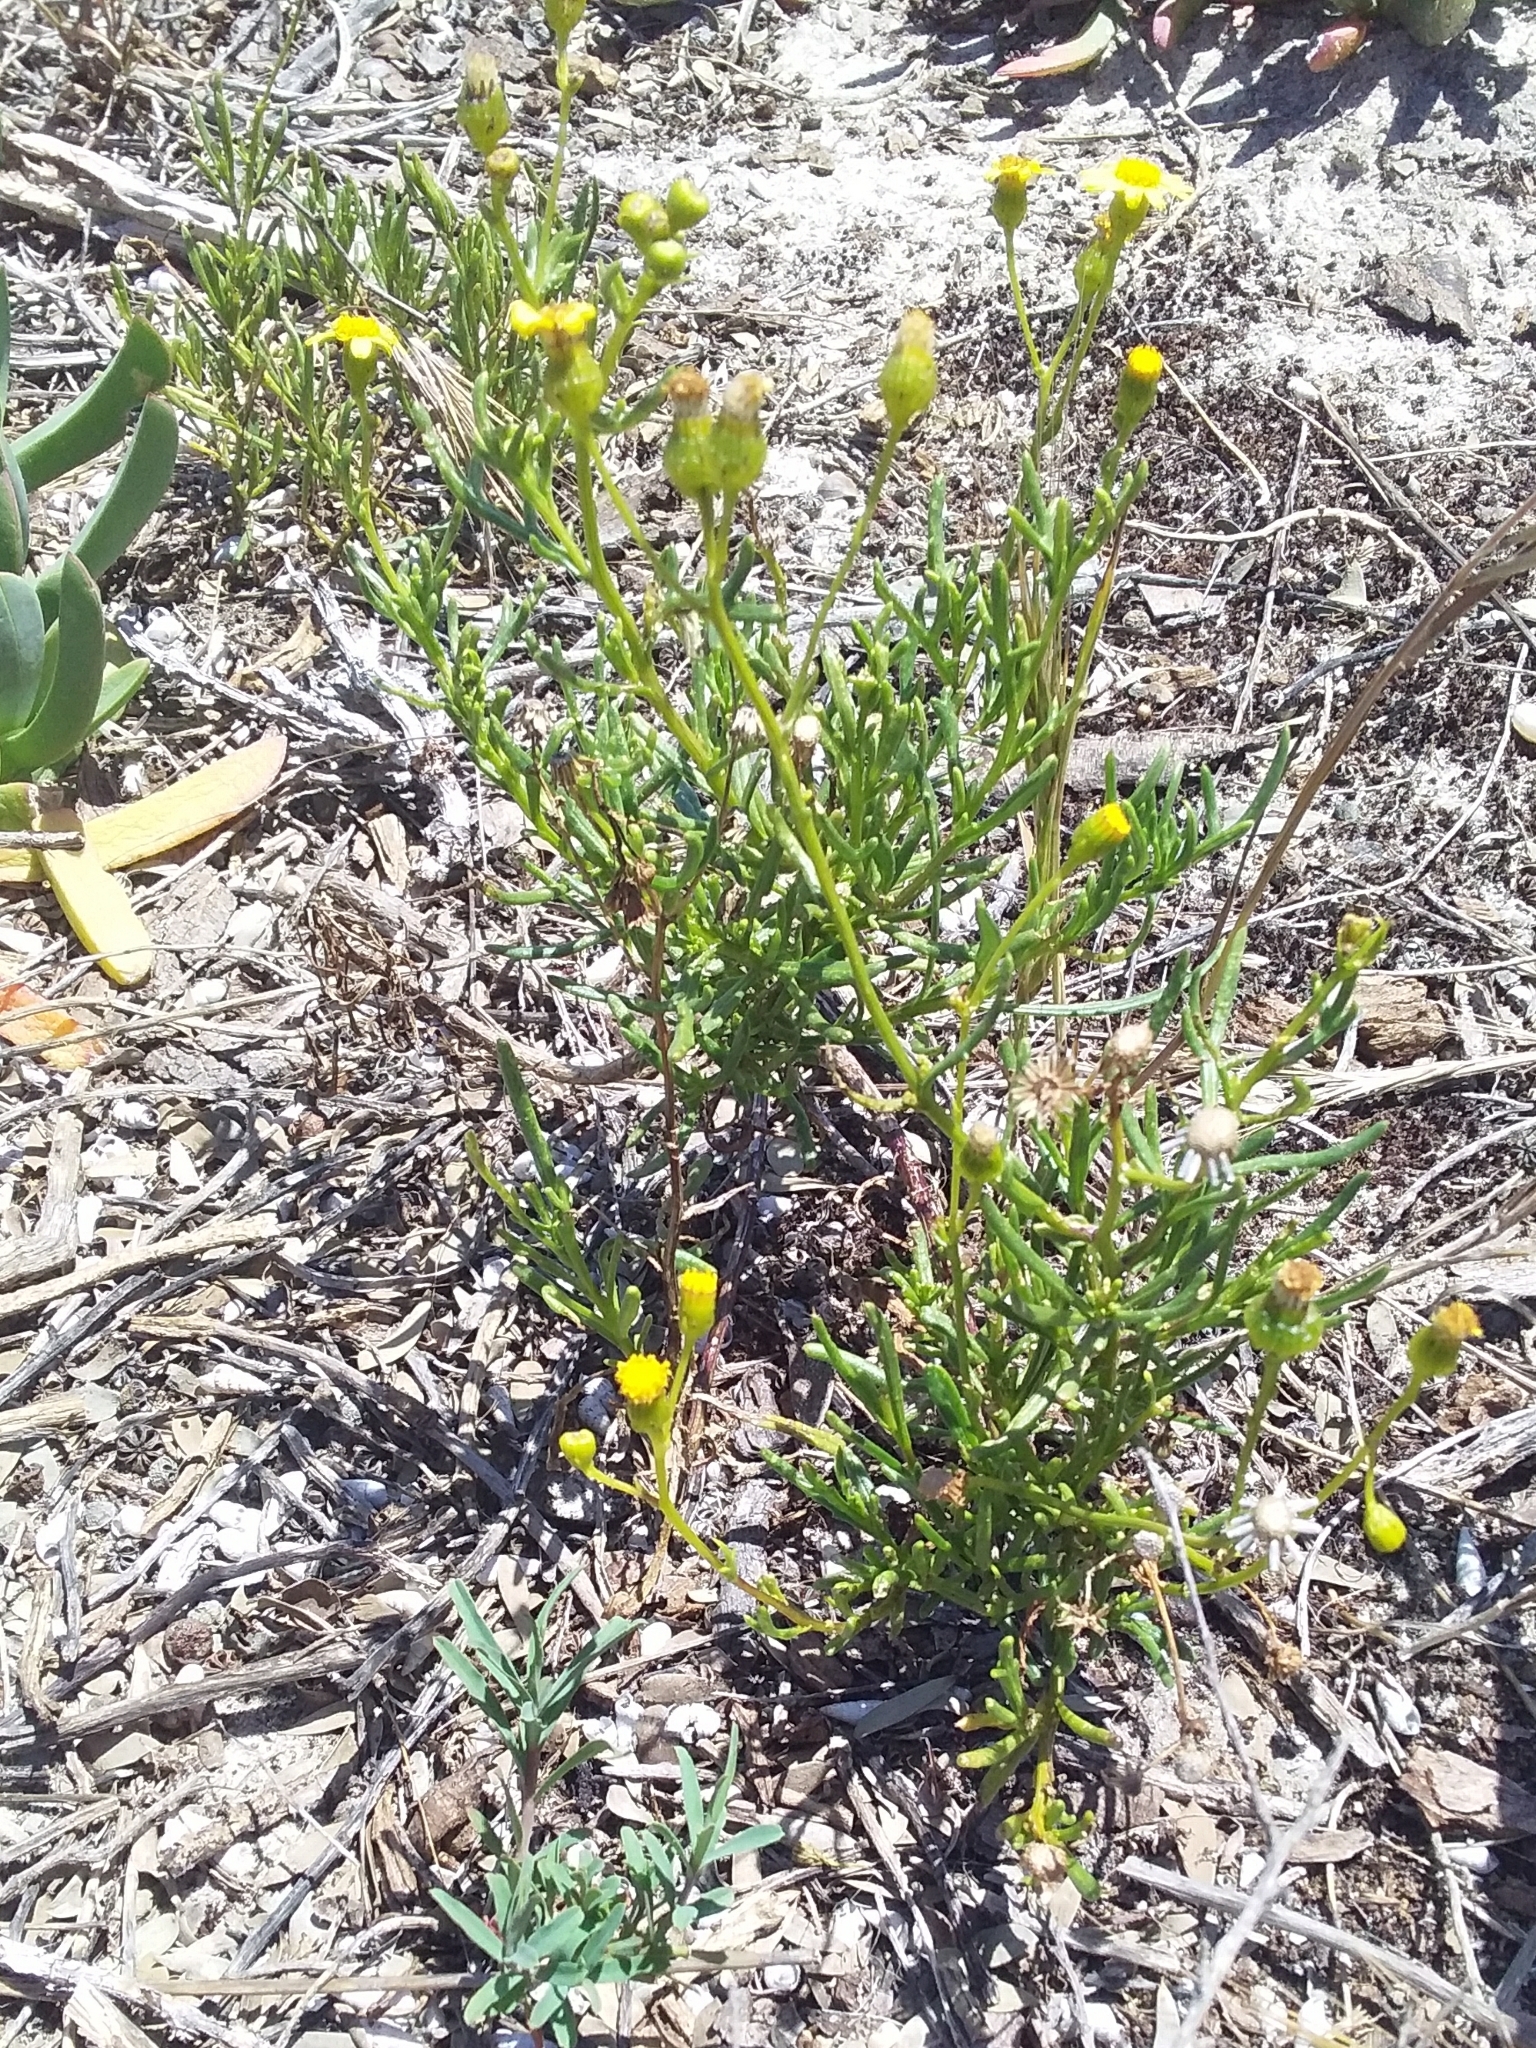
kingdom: Plantae
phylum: Tracheophyta
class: Magnoliopsida
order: Asterales
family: Asteraceae
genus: Senecio
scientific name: Senecio pinnatifolius
